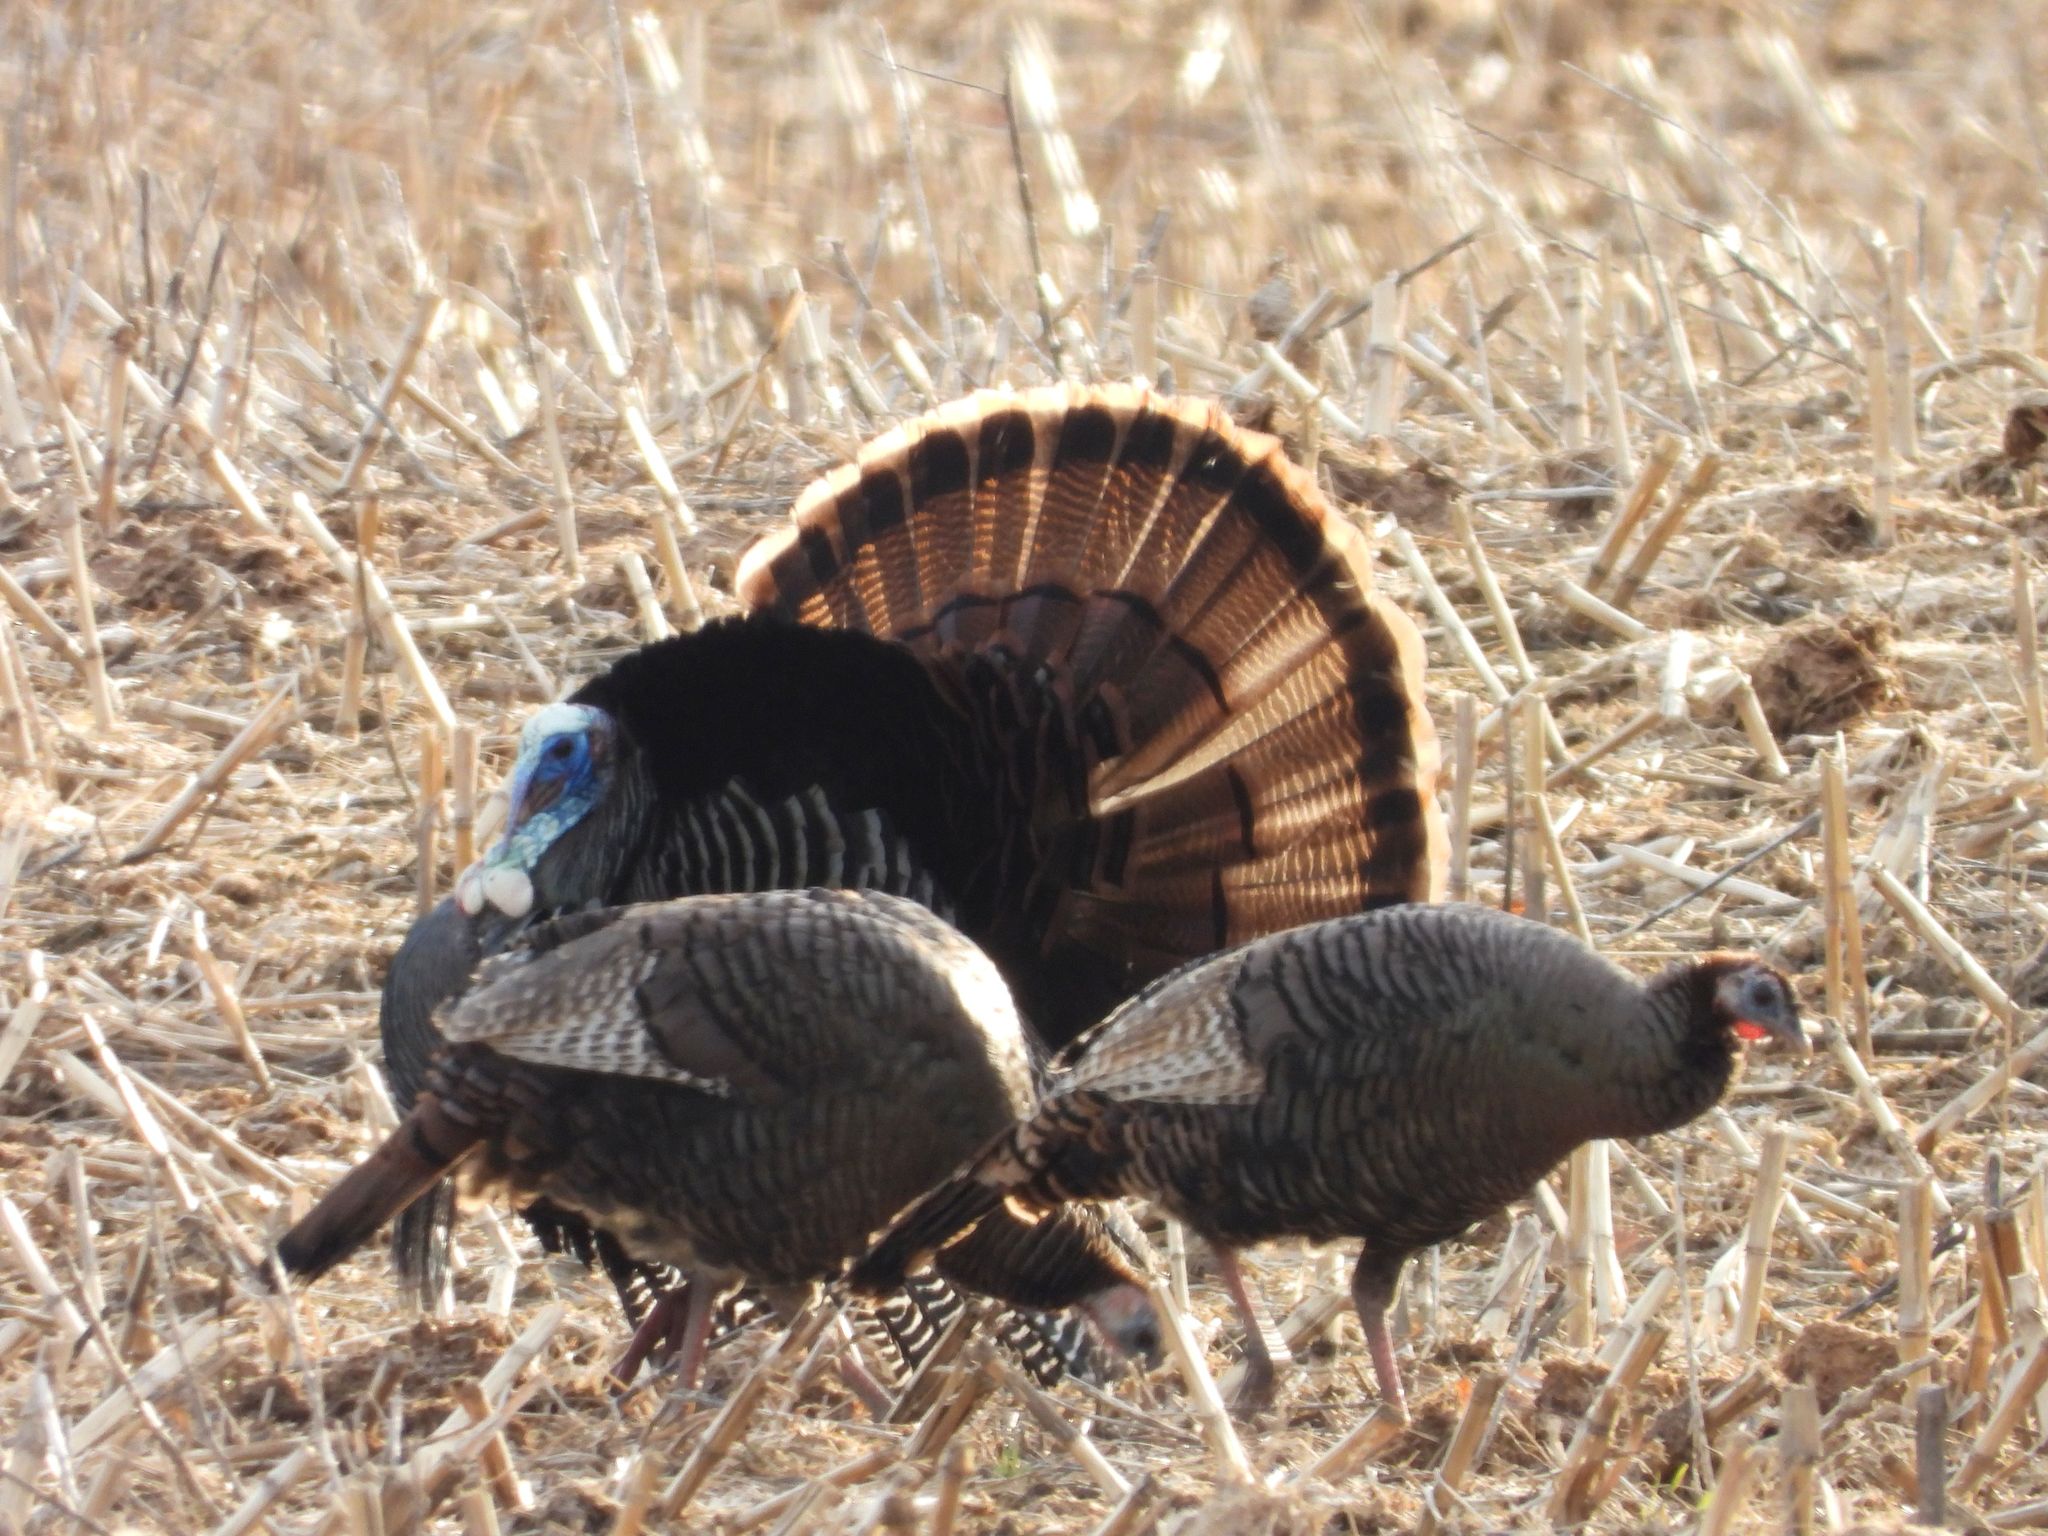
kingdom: Animalia
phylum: Chordata
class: Aves
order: Galliformes
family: Phasianidae
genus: Meleagris
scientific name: Meleagris gallopavo
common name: Wild turkey
